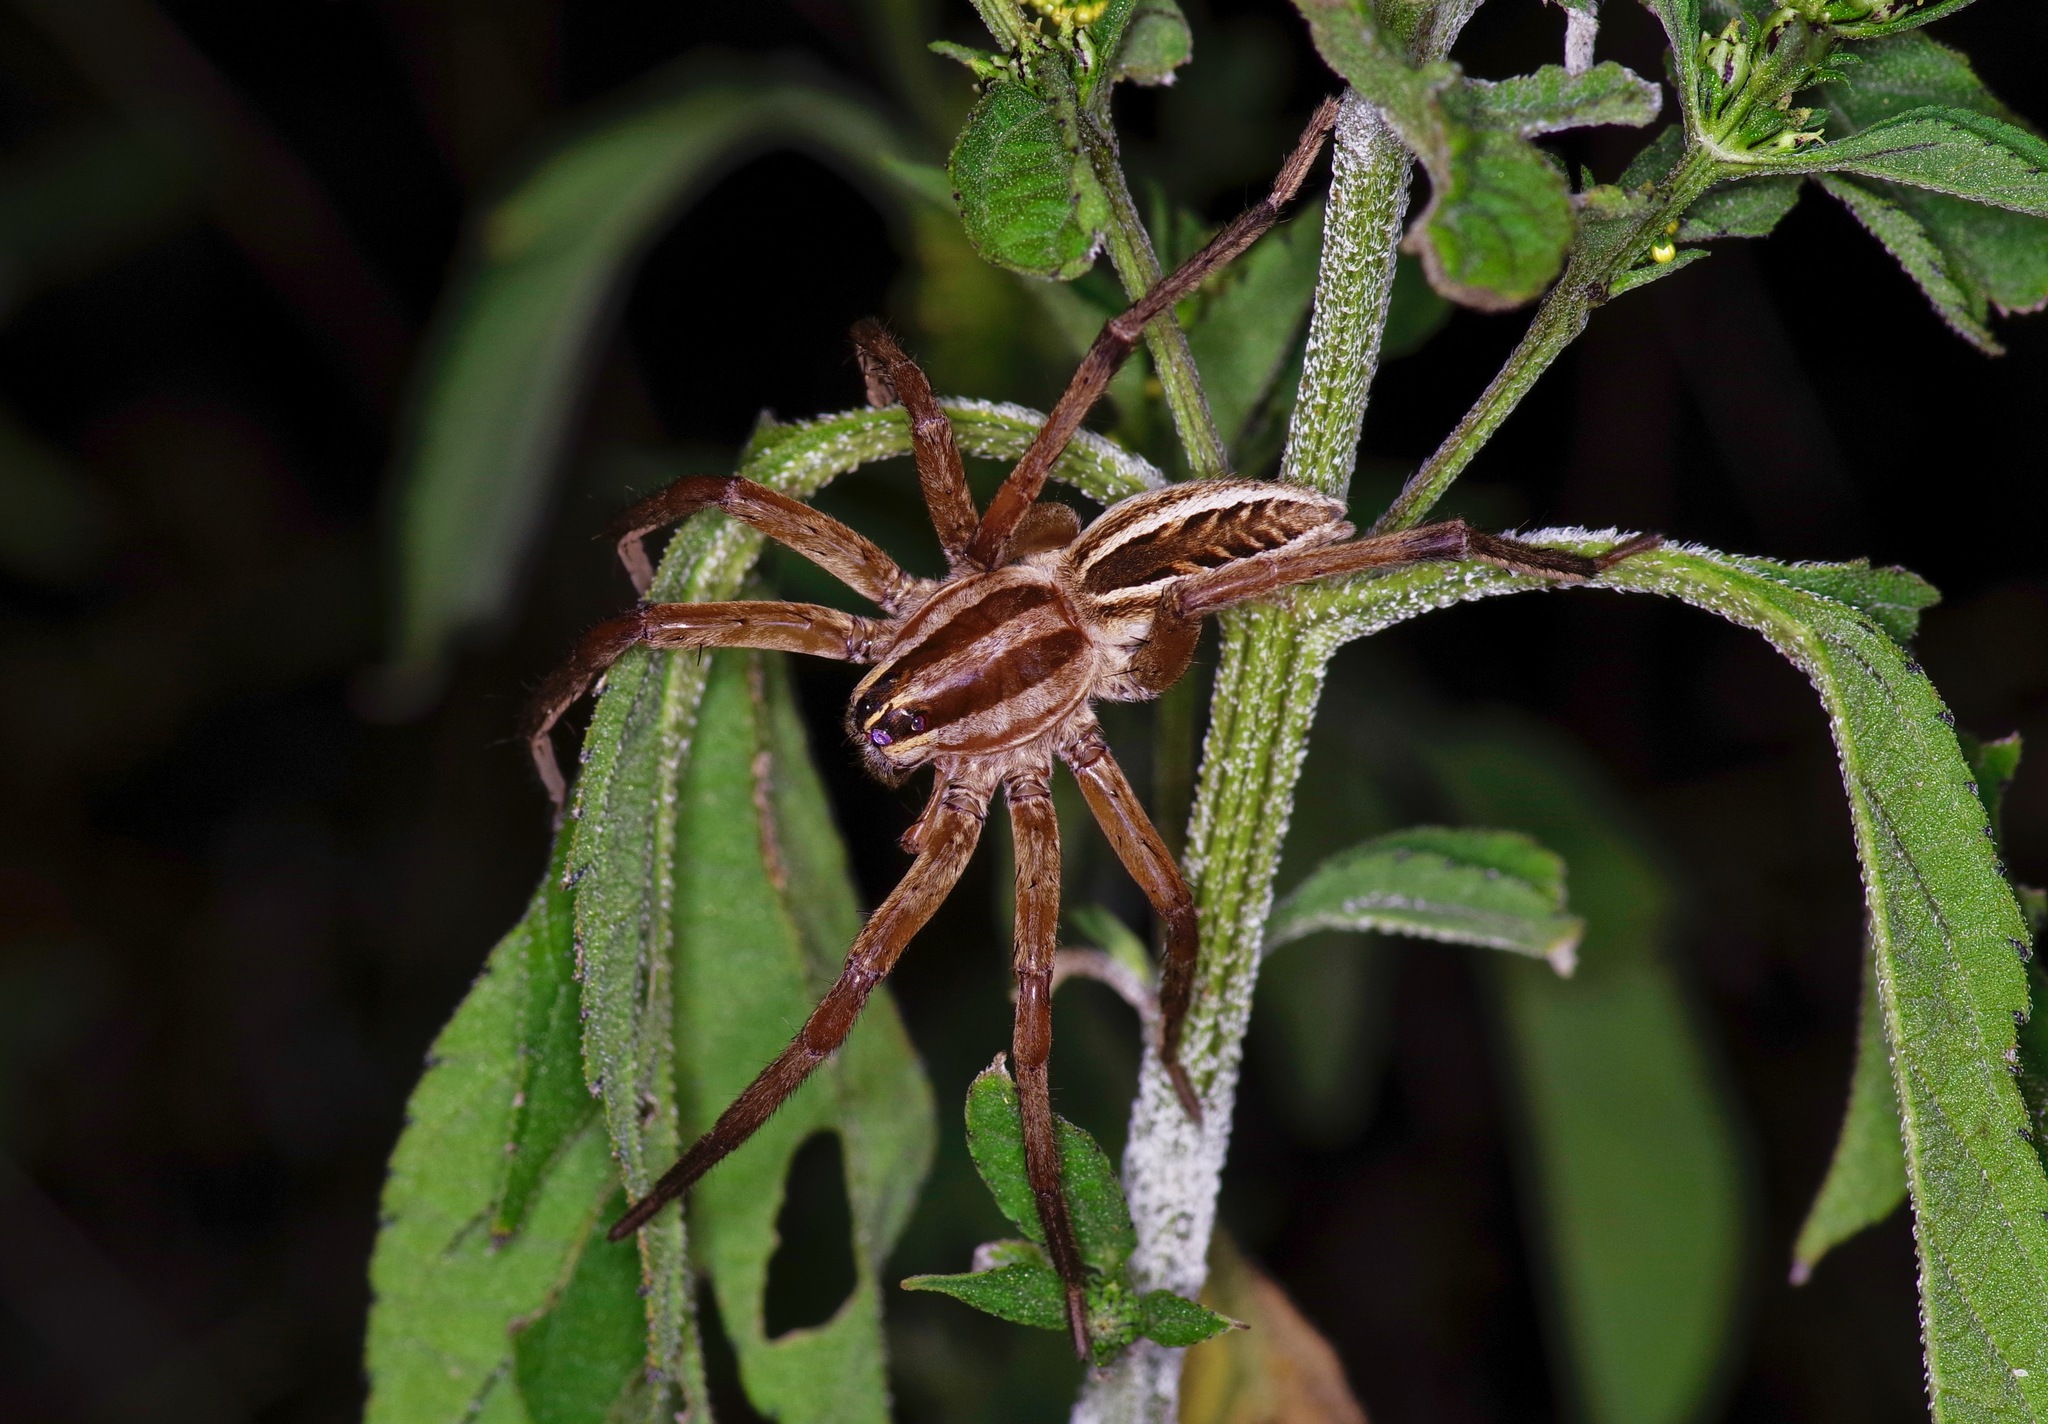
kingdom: Animalia
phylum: Arthropoda
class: Arachnida
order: Araneae
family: Lycosidae
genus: Rabidosa
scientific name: Rabidosa rabida
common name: Rabid wolf spider
